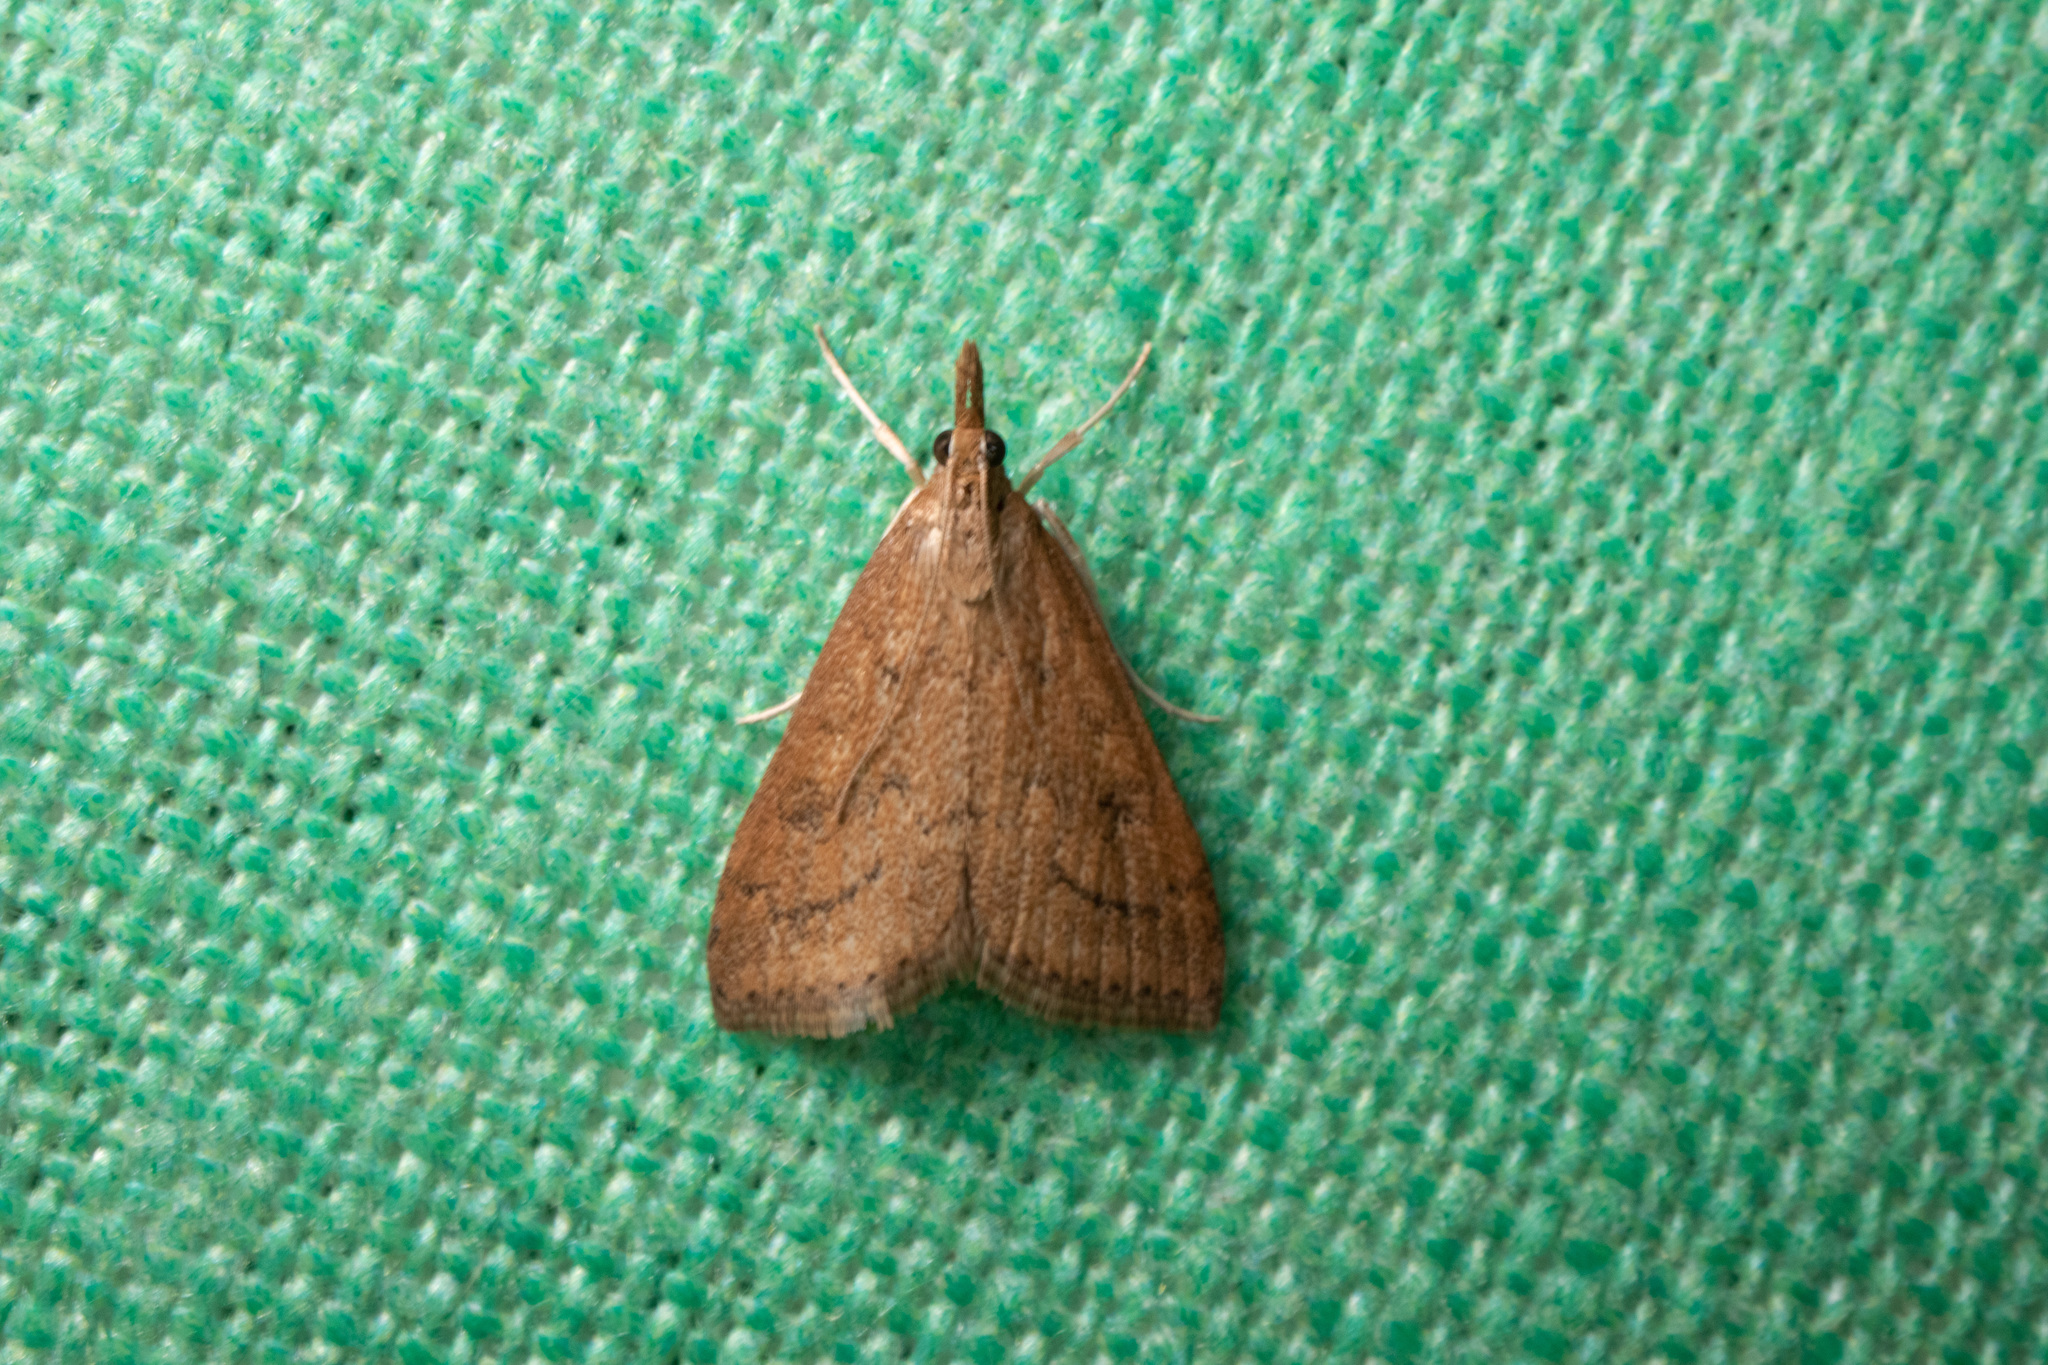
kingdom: Animalia
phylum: Arthropoda
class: Insecta
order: Lepidoptera
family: Crambidae
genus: Udea
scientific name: Udea rubigalis
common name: Celery leaftier moth
